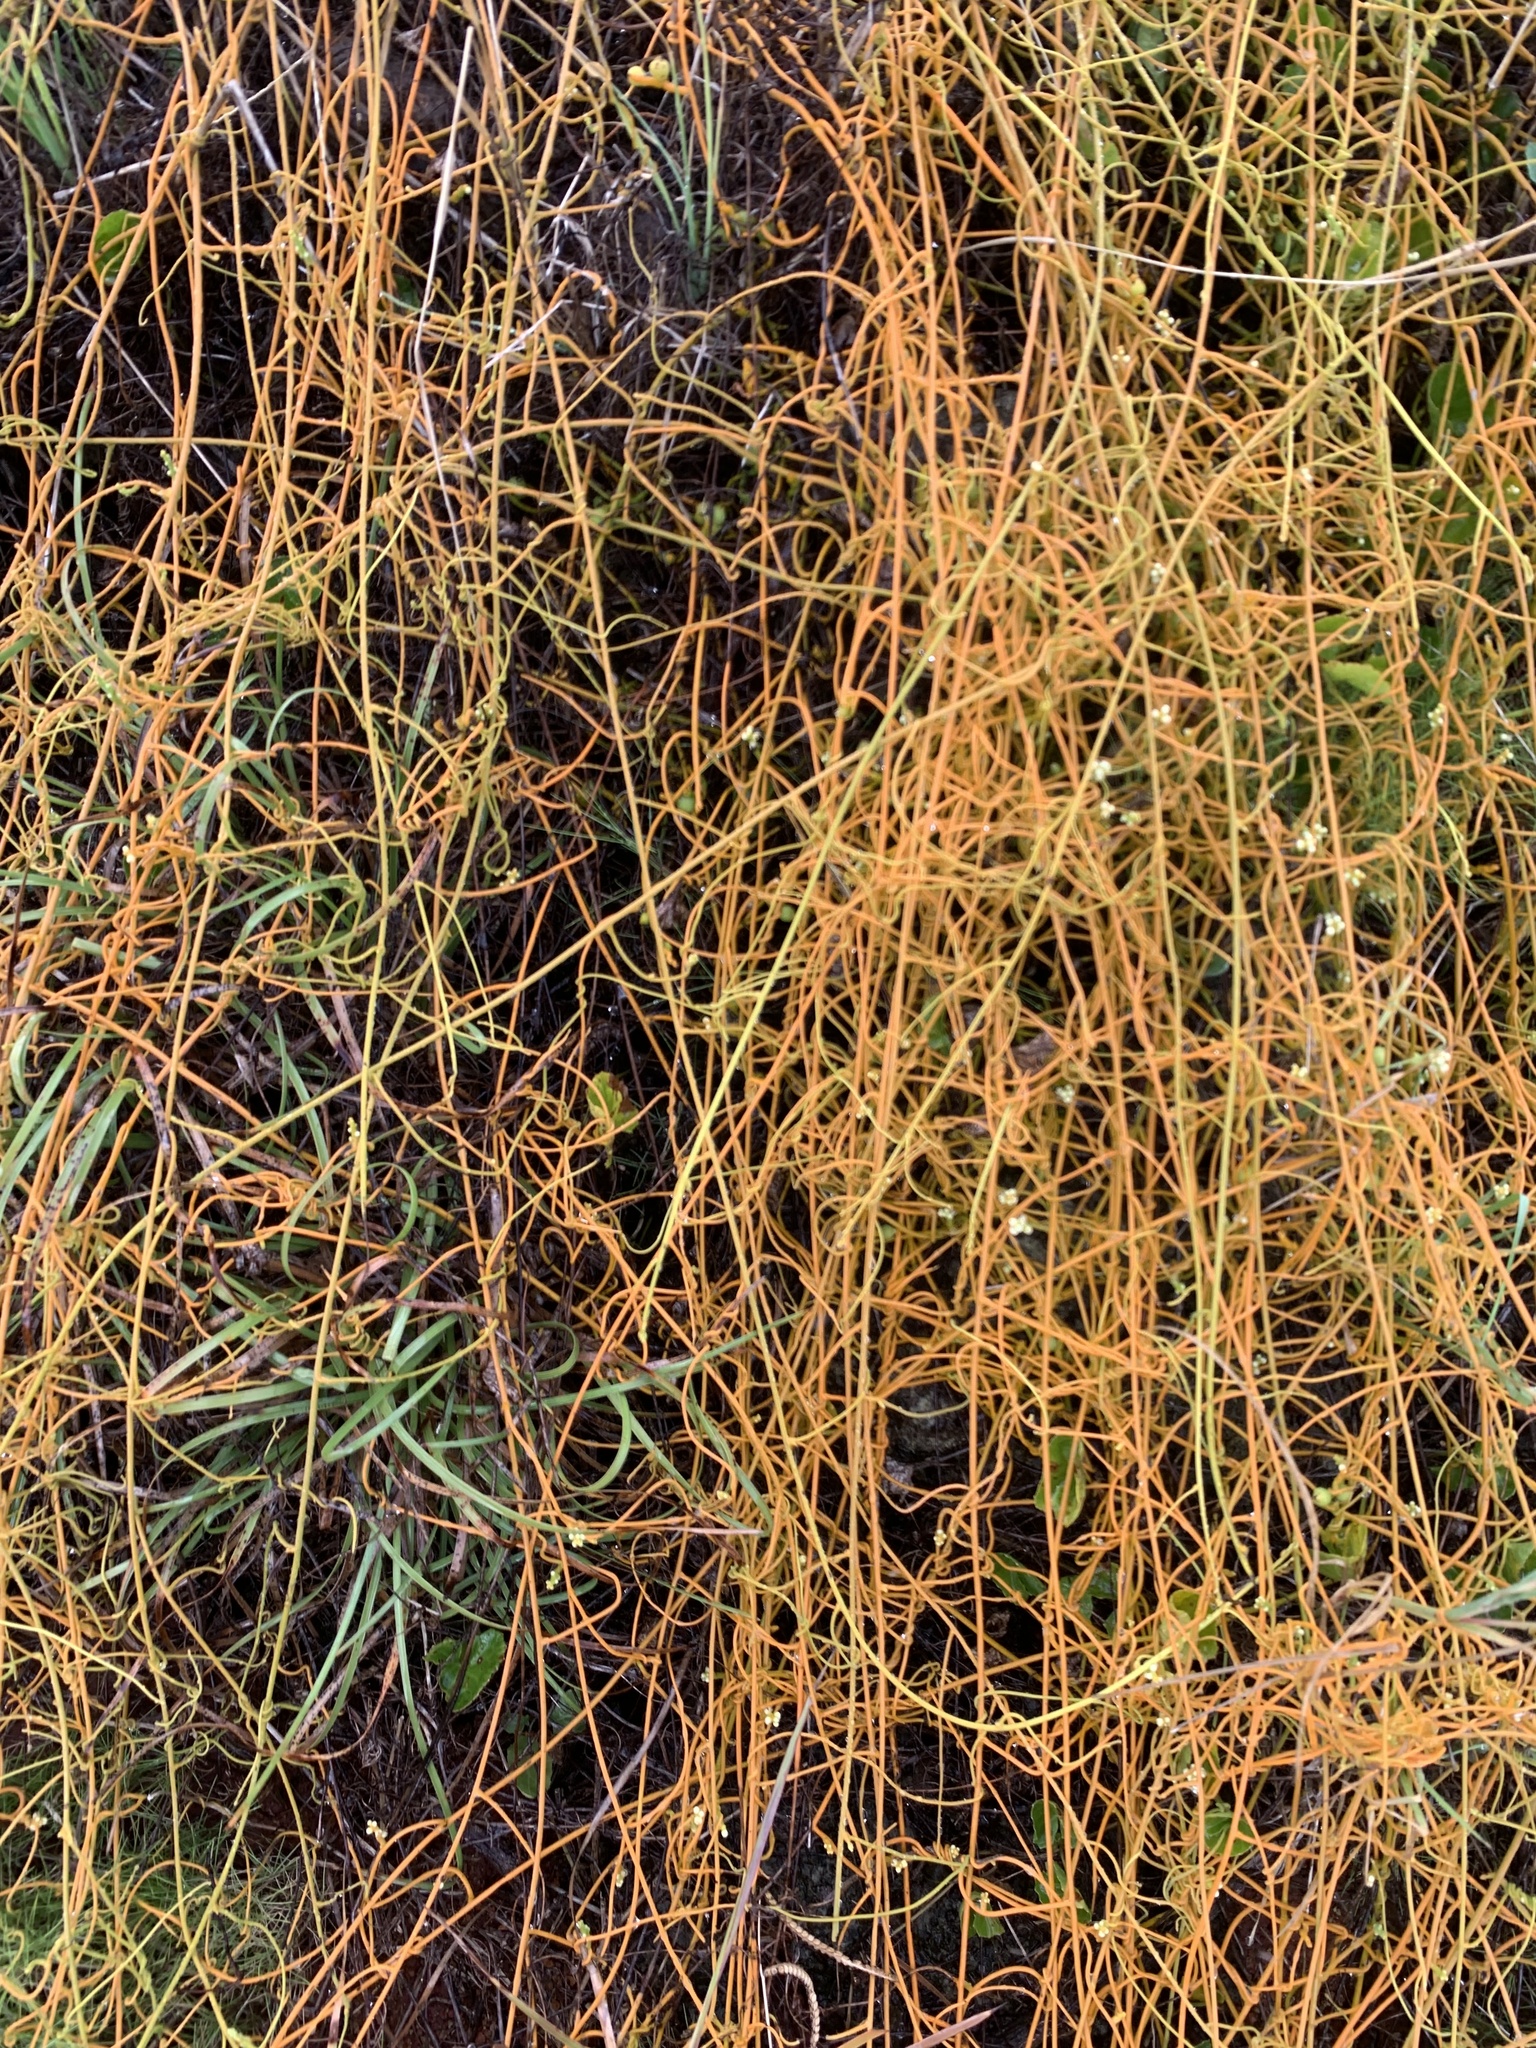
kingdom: Plantae
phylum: Tracheophyta
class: Magnoliopsida
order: Laurales
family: Lauraceae
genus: Cassytha
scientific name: Cassytha filiformis
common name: Dodder-laurel
